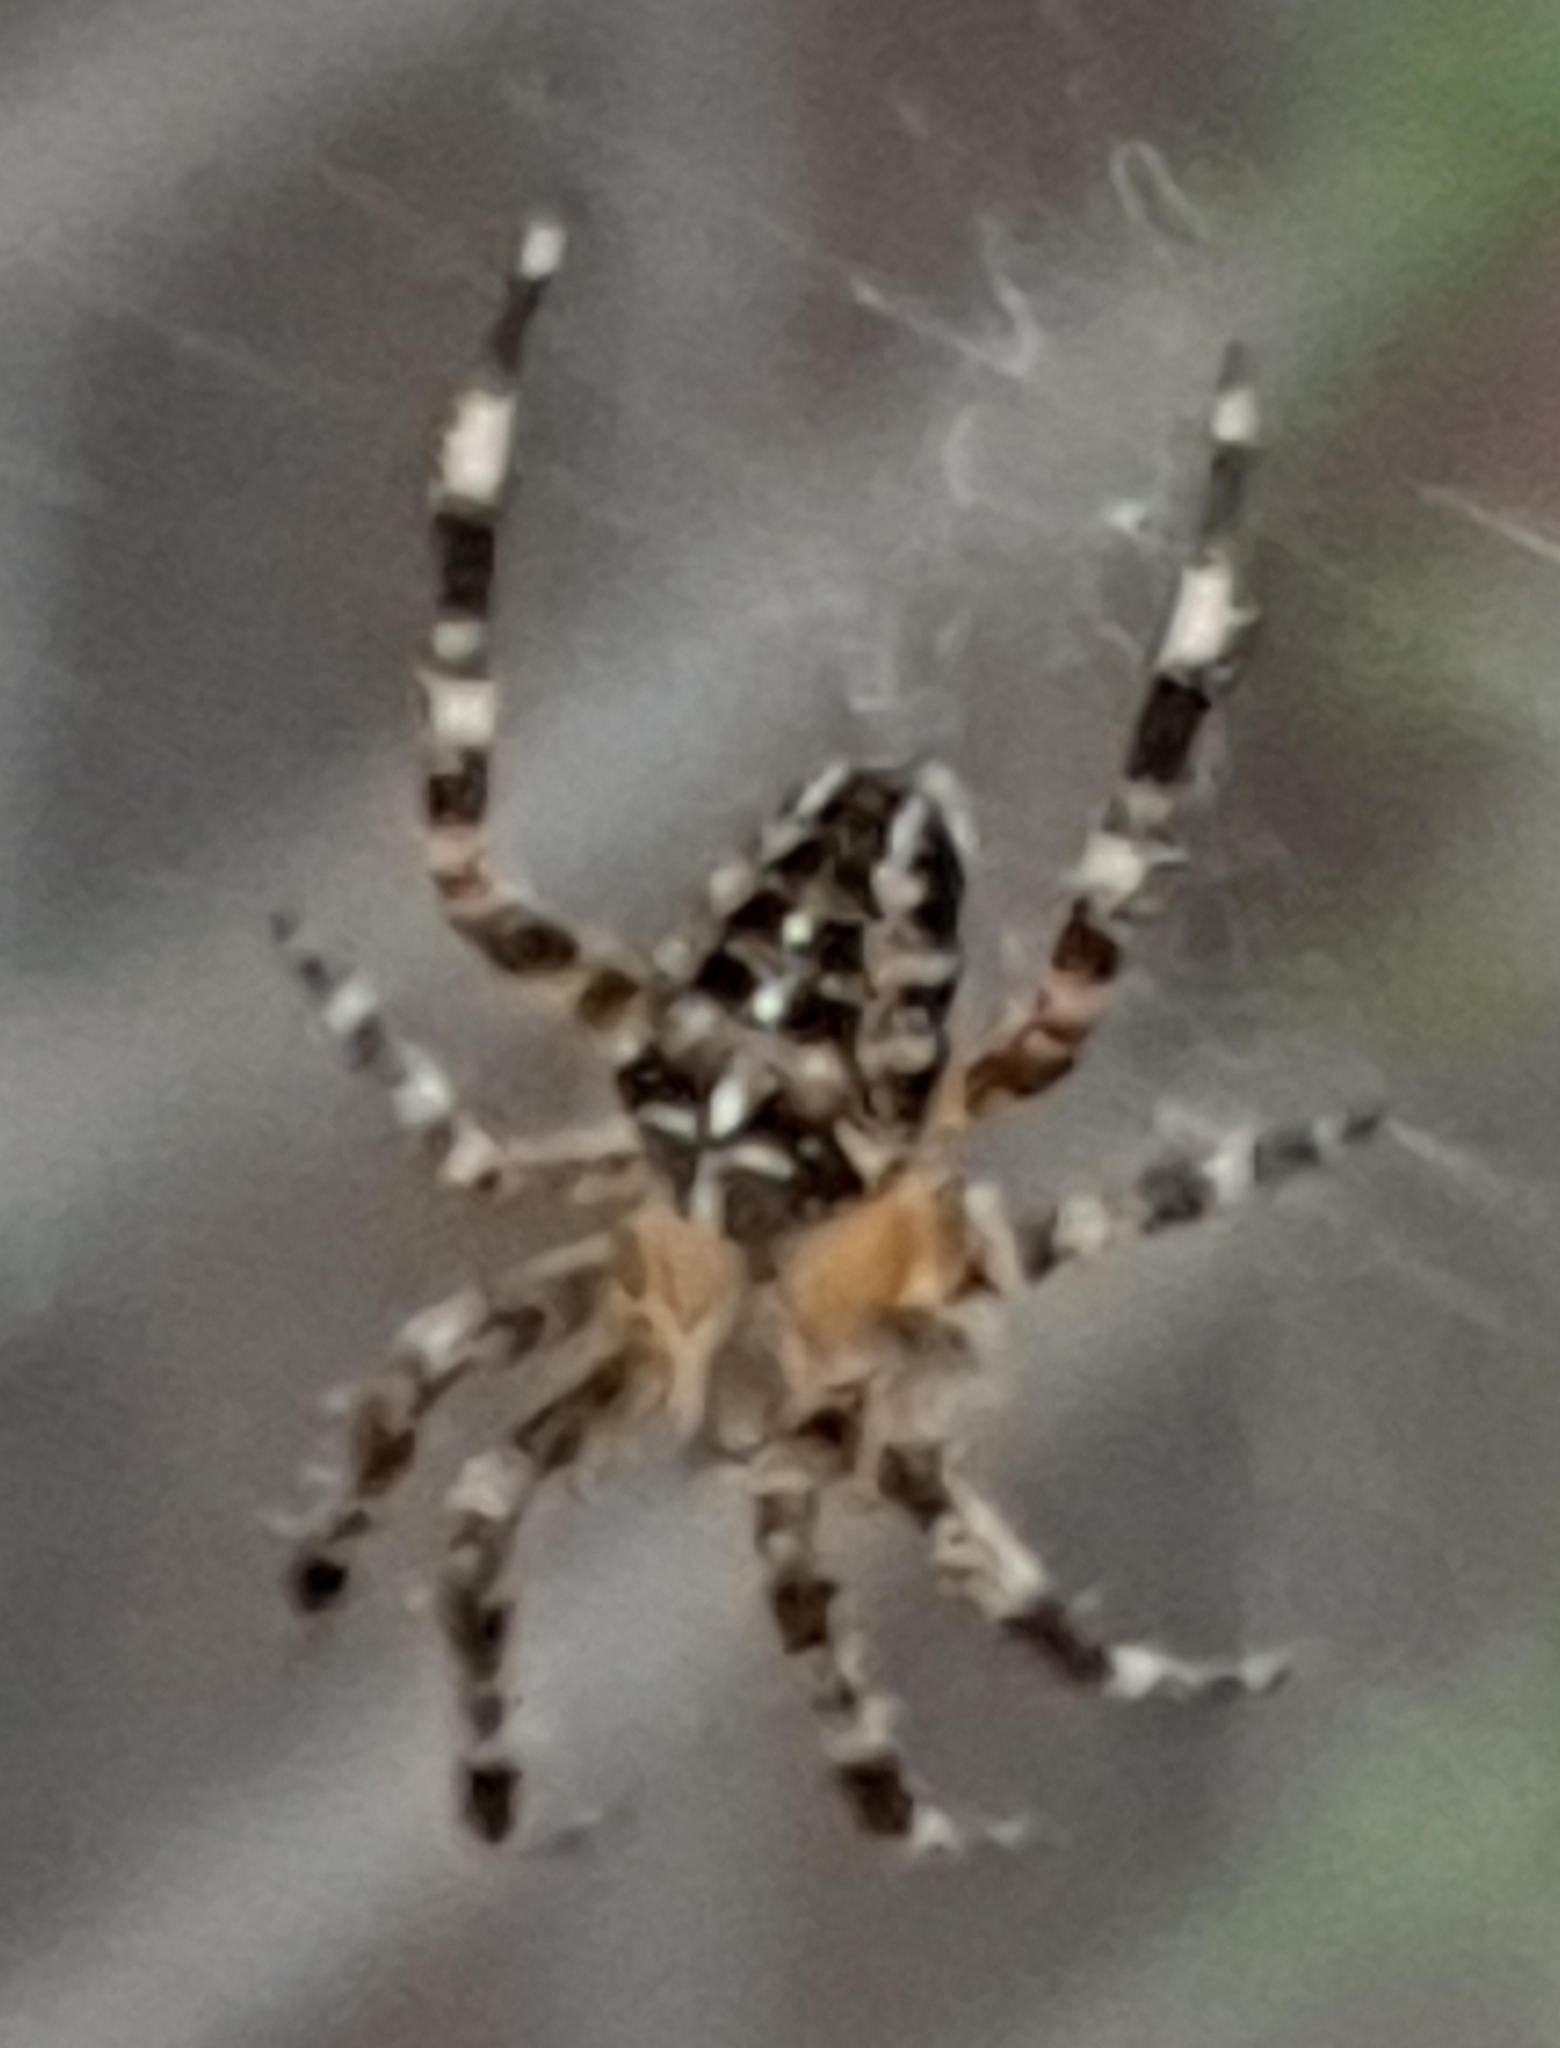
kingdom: Animalia
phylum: Arthropoda
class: Arachnida
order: Araneae
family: Araneidae
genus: Araneus
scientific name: Araneus diadematus
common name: Cross orbweaver
